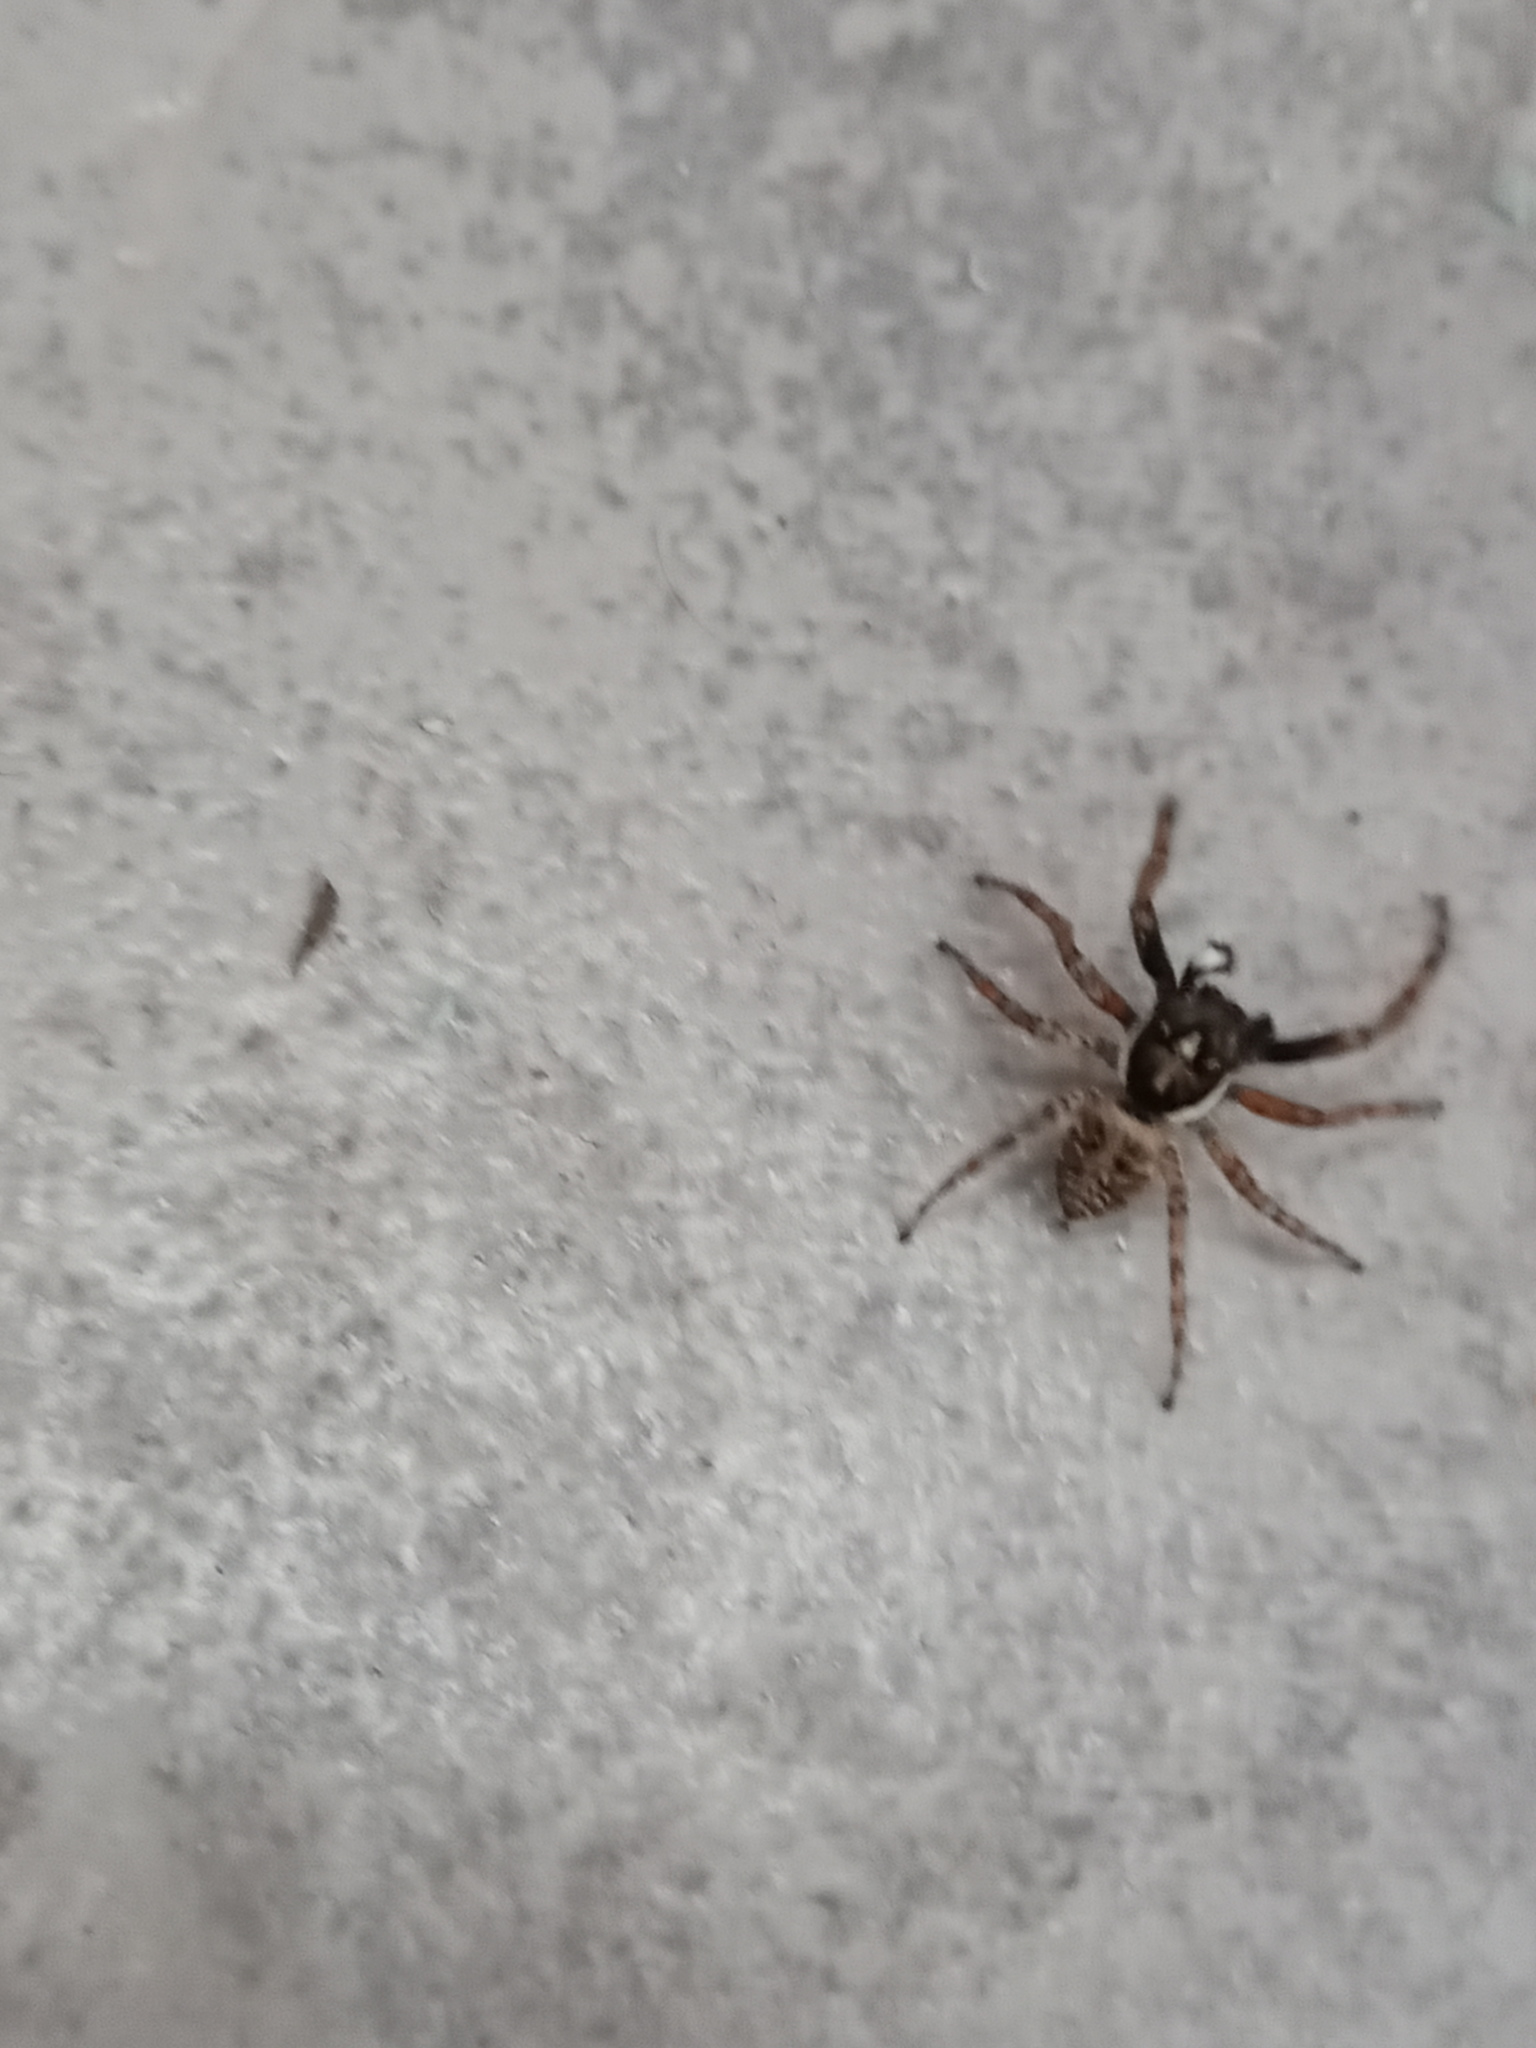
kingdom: Animalia
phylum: Arthropoda
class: Arachnida
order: Araneae
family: Salticidae
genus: Menemerus
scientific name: Menemerus semilimbatus
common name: Jumping spider
